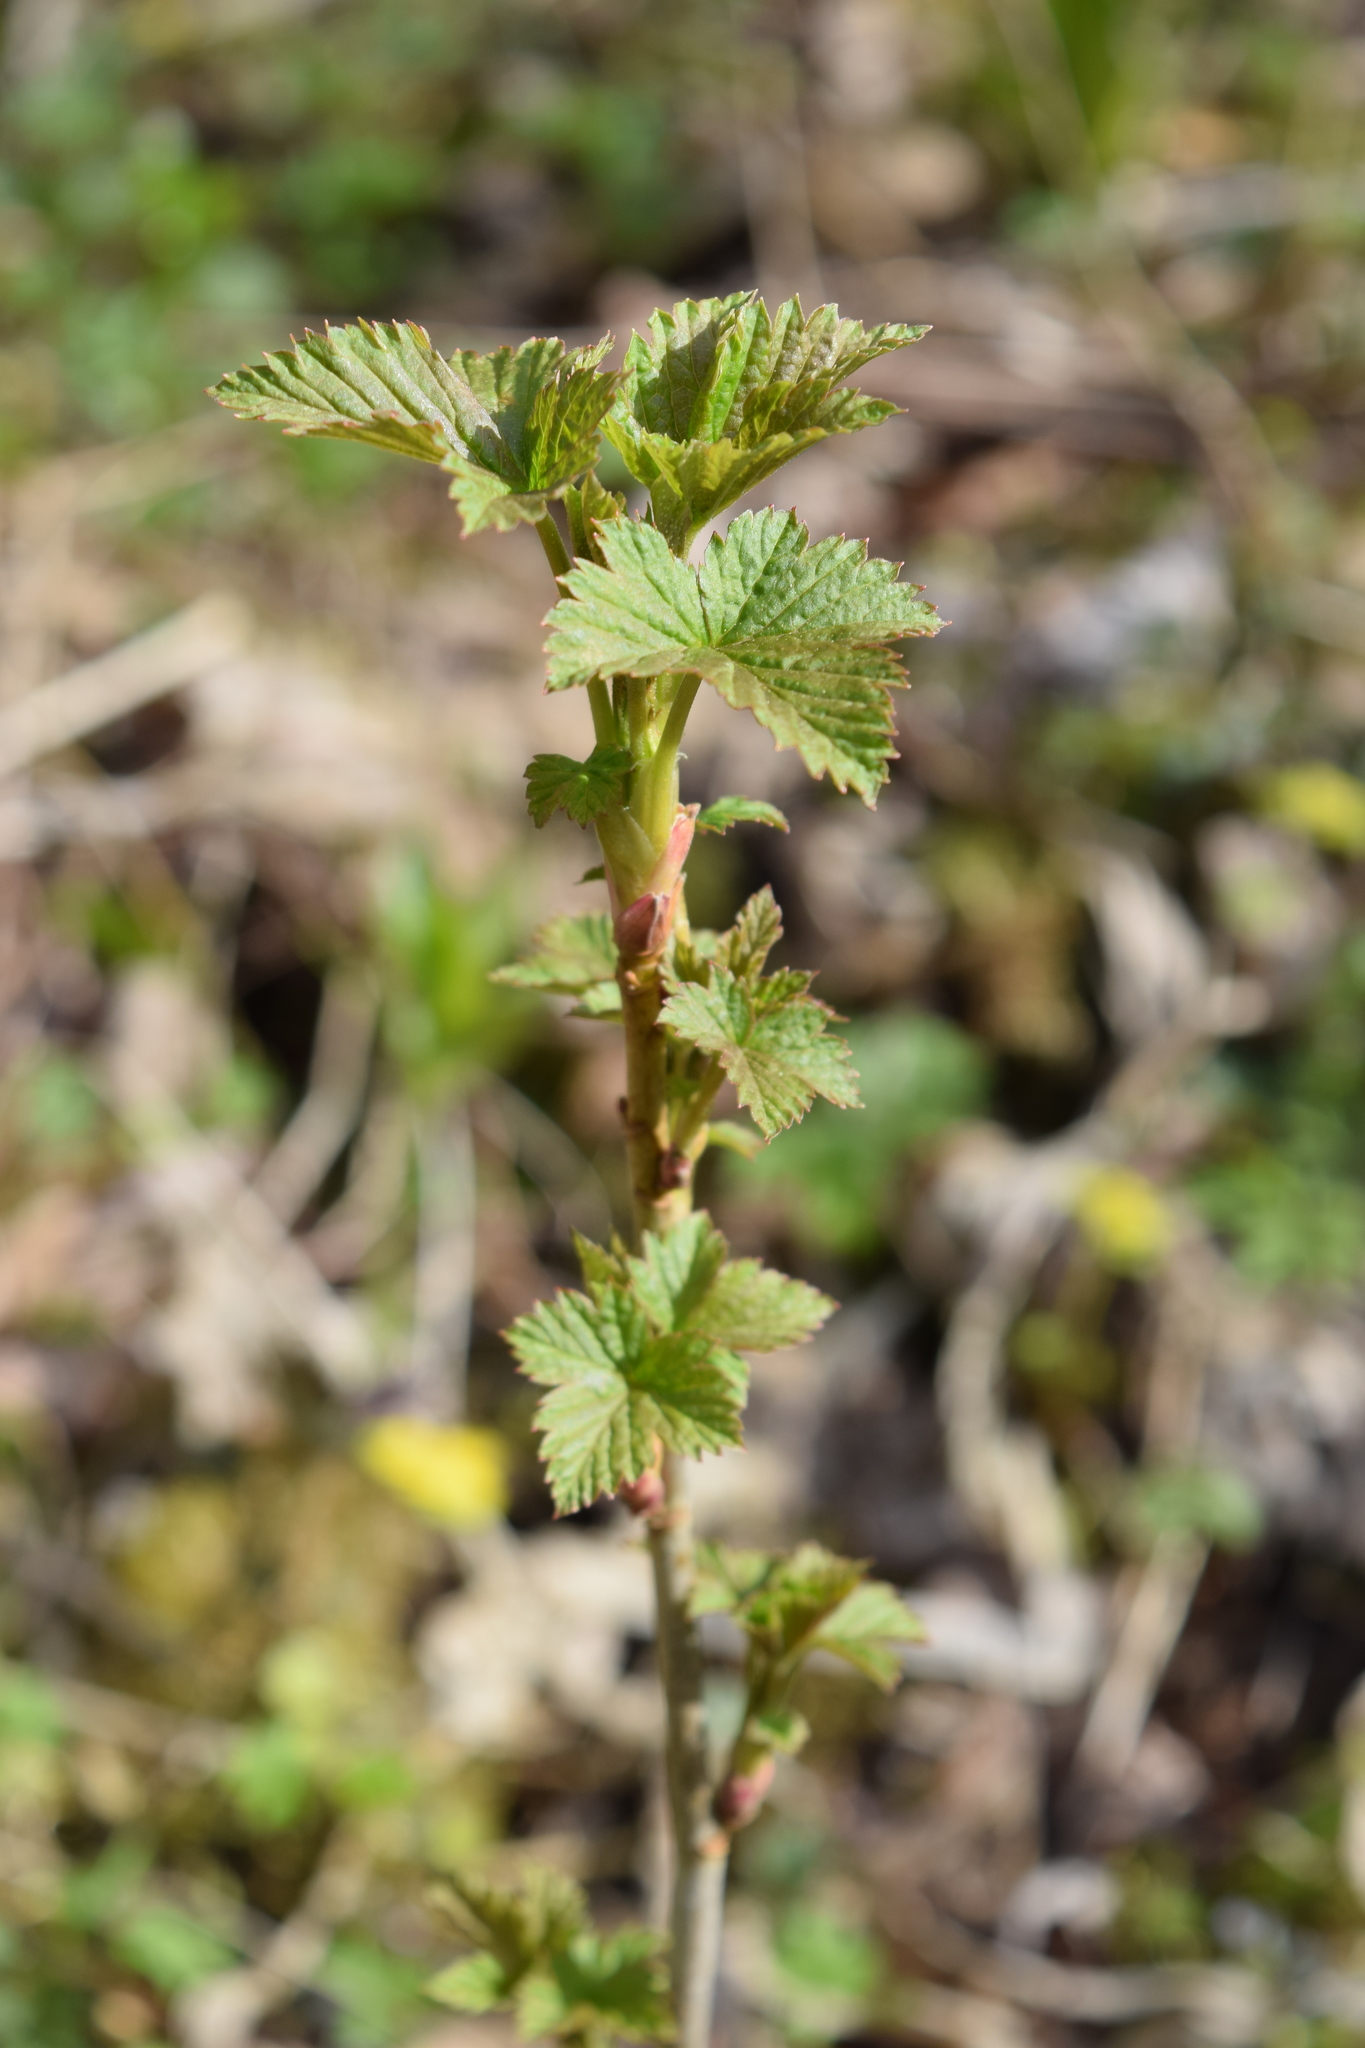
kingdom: Plantae
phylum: Tracheophyta
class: Magnoliopsida
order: Saxifragales
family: Grossulariaceae
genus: Ribes
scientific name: Ribes nigrum
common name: Black currant
